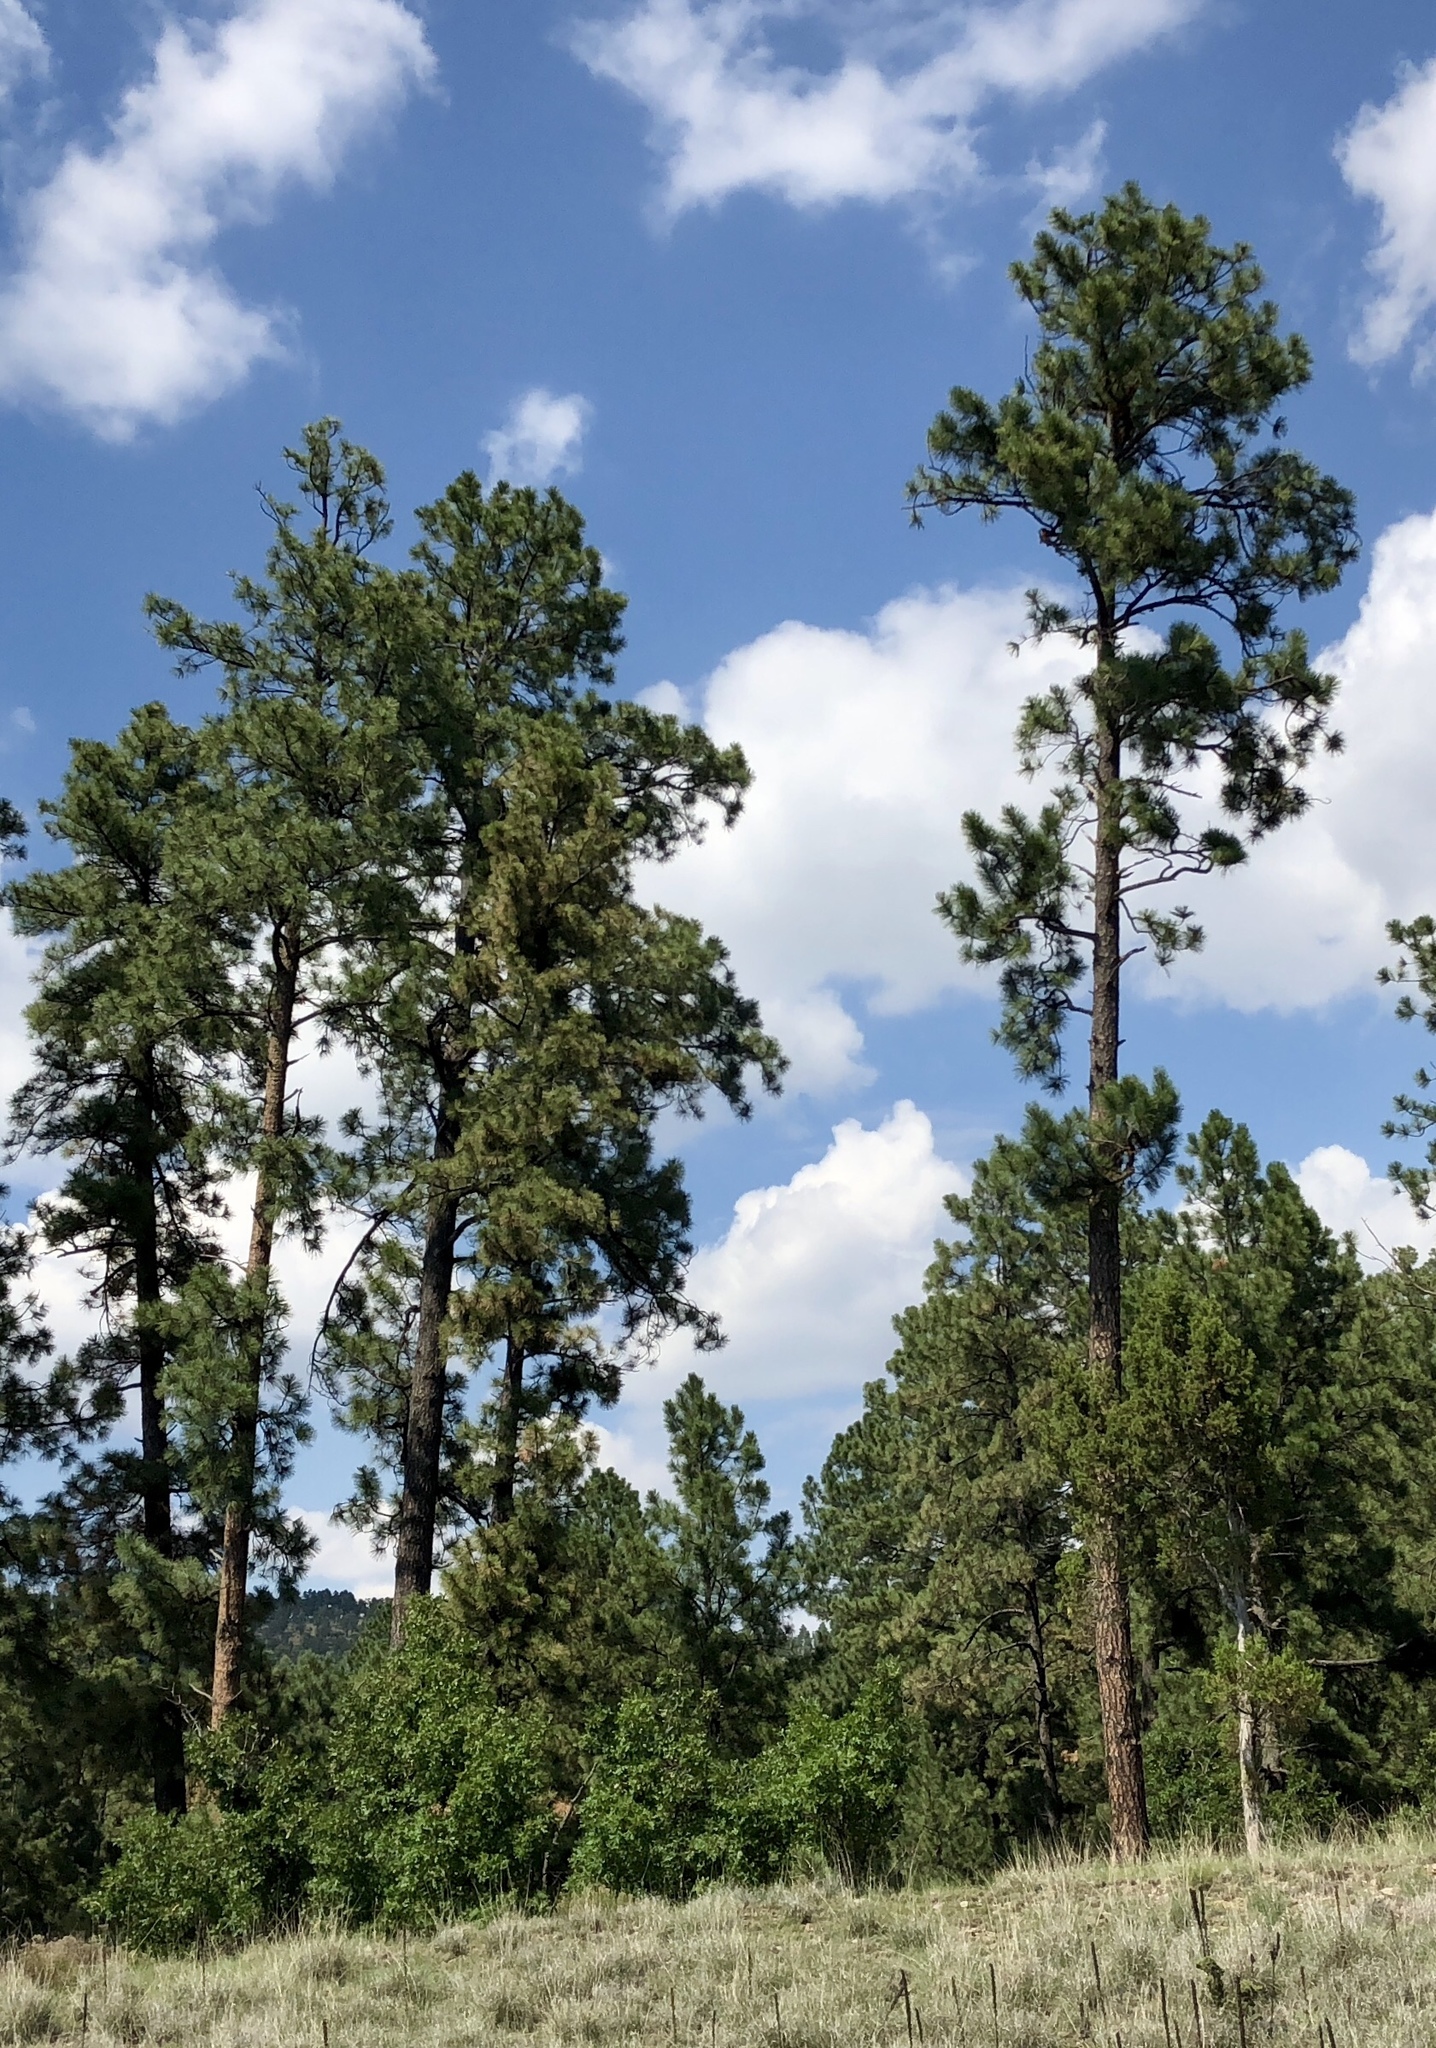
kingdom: Plantae
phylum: Tracheophyta
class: Pinopsida
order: Pinales
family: Pinaceae
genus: Pinus
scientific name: Pinus ponderosa
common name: Western yellow-pine
